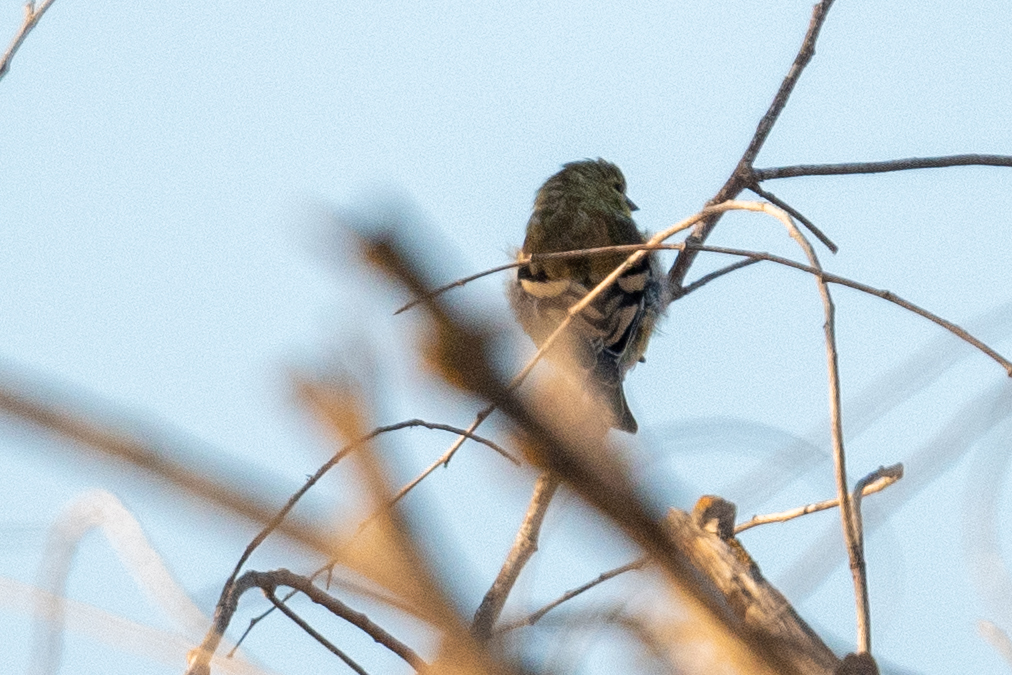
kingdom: Animalia
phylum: Chordata
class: Aves
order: Passeriformes
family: Fringillidae
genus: Spinus
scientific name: Spinus tristis
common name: American goldfinch
